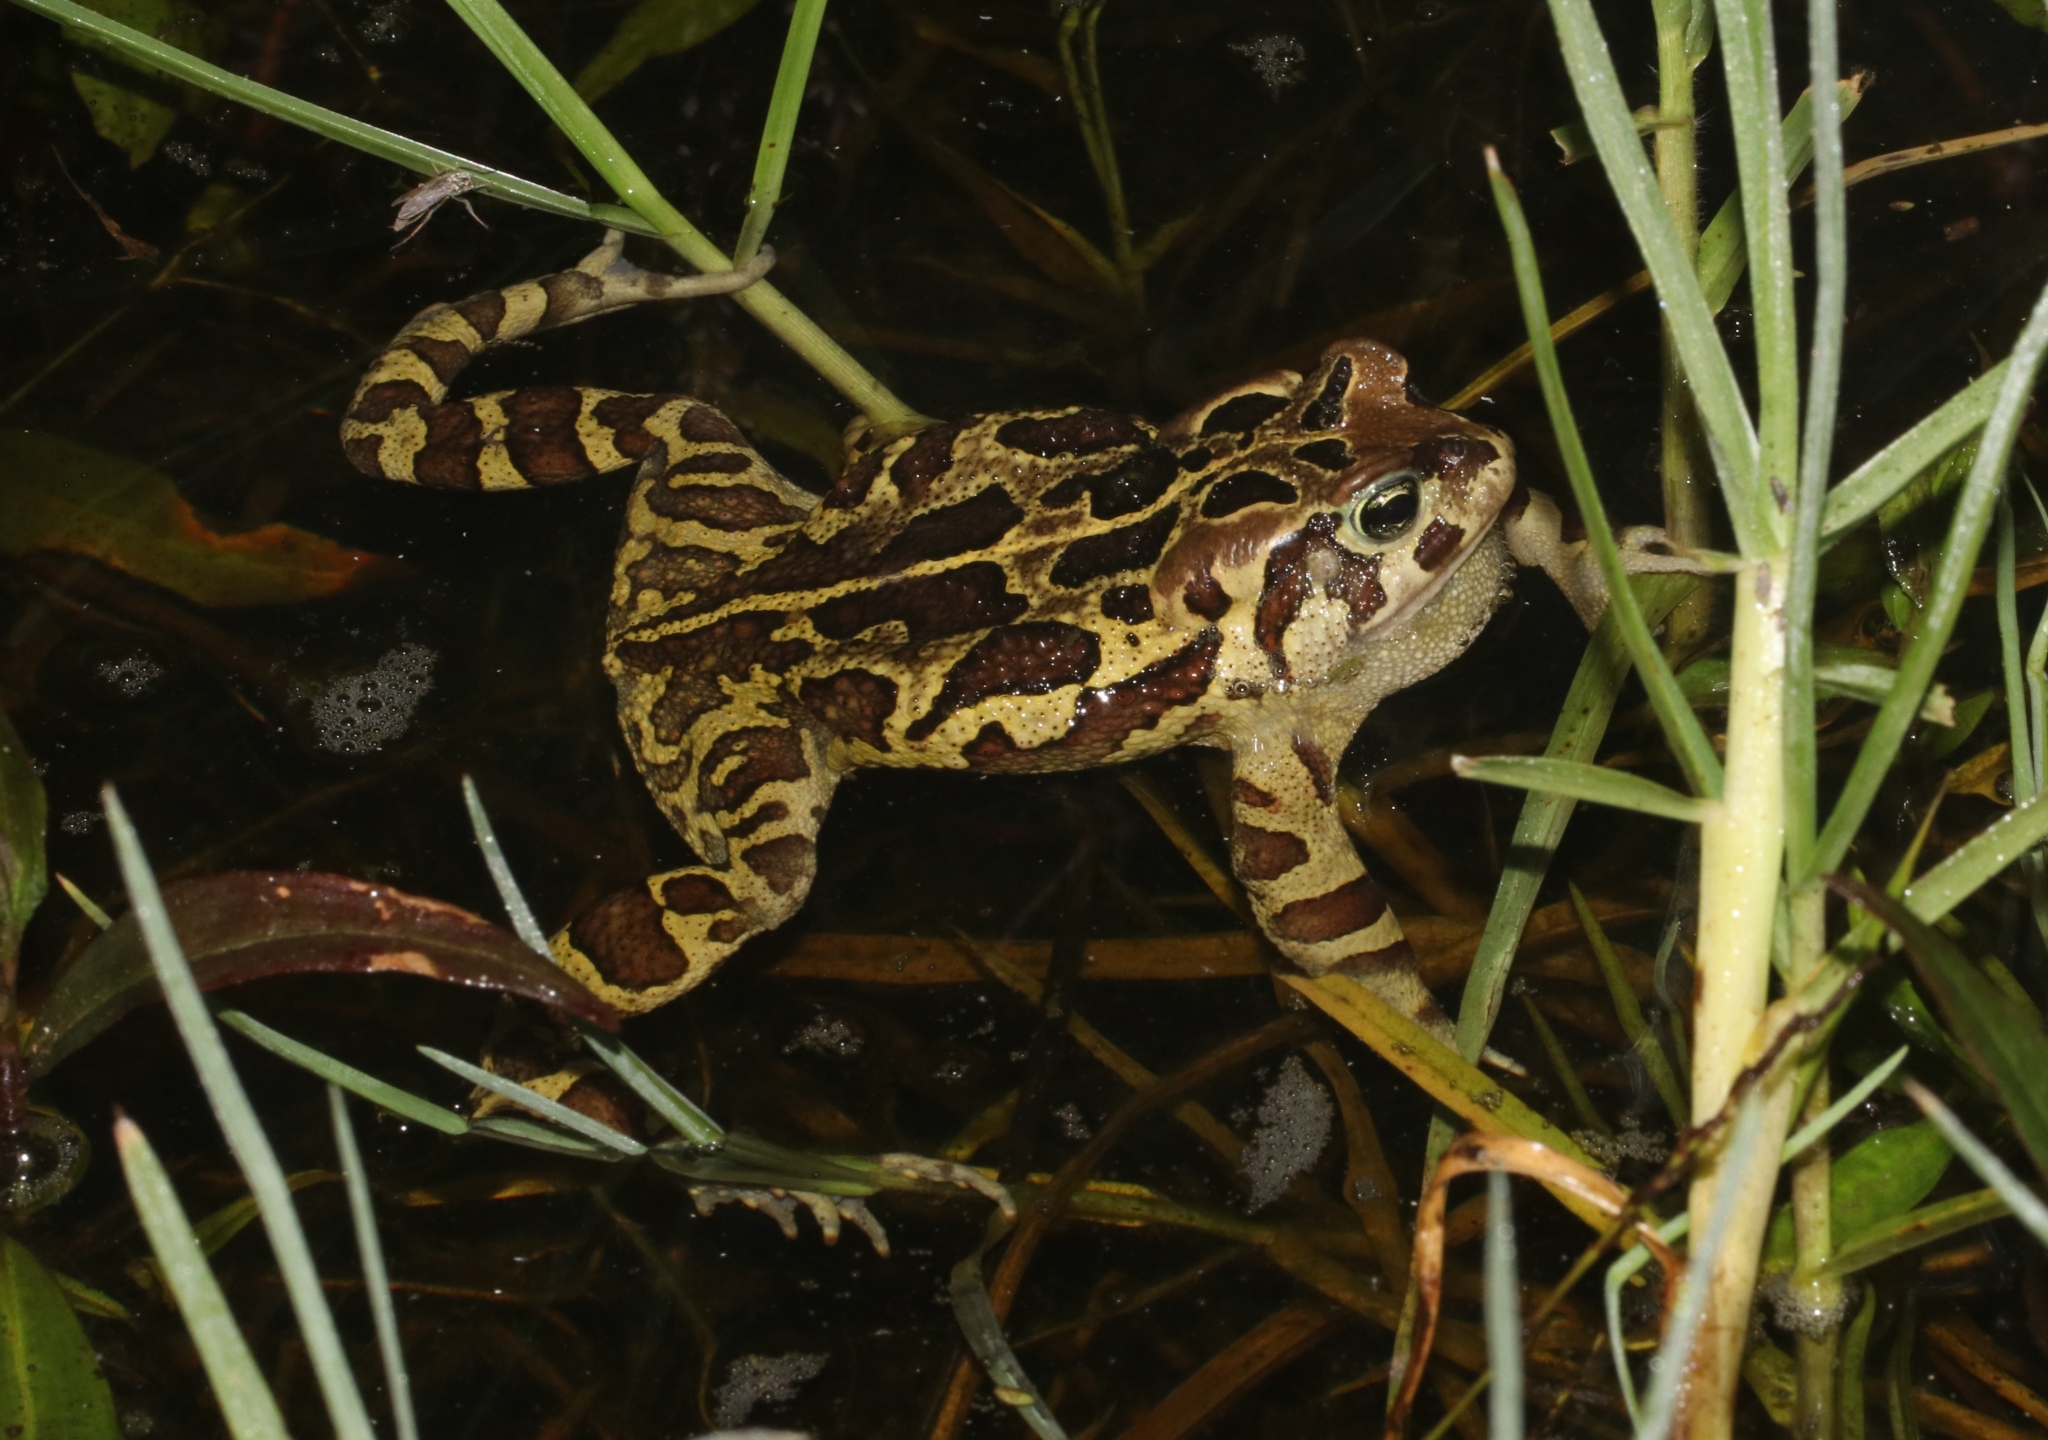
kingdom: Animalia
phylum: Chordata
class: Amphibia
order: Anura
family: Bufonidae
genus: Sclerophrys
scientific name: Sclerophrys pantherina
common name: Panther toad
